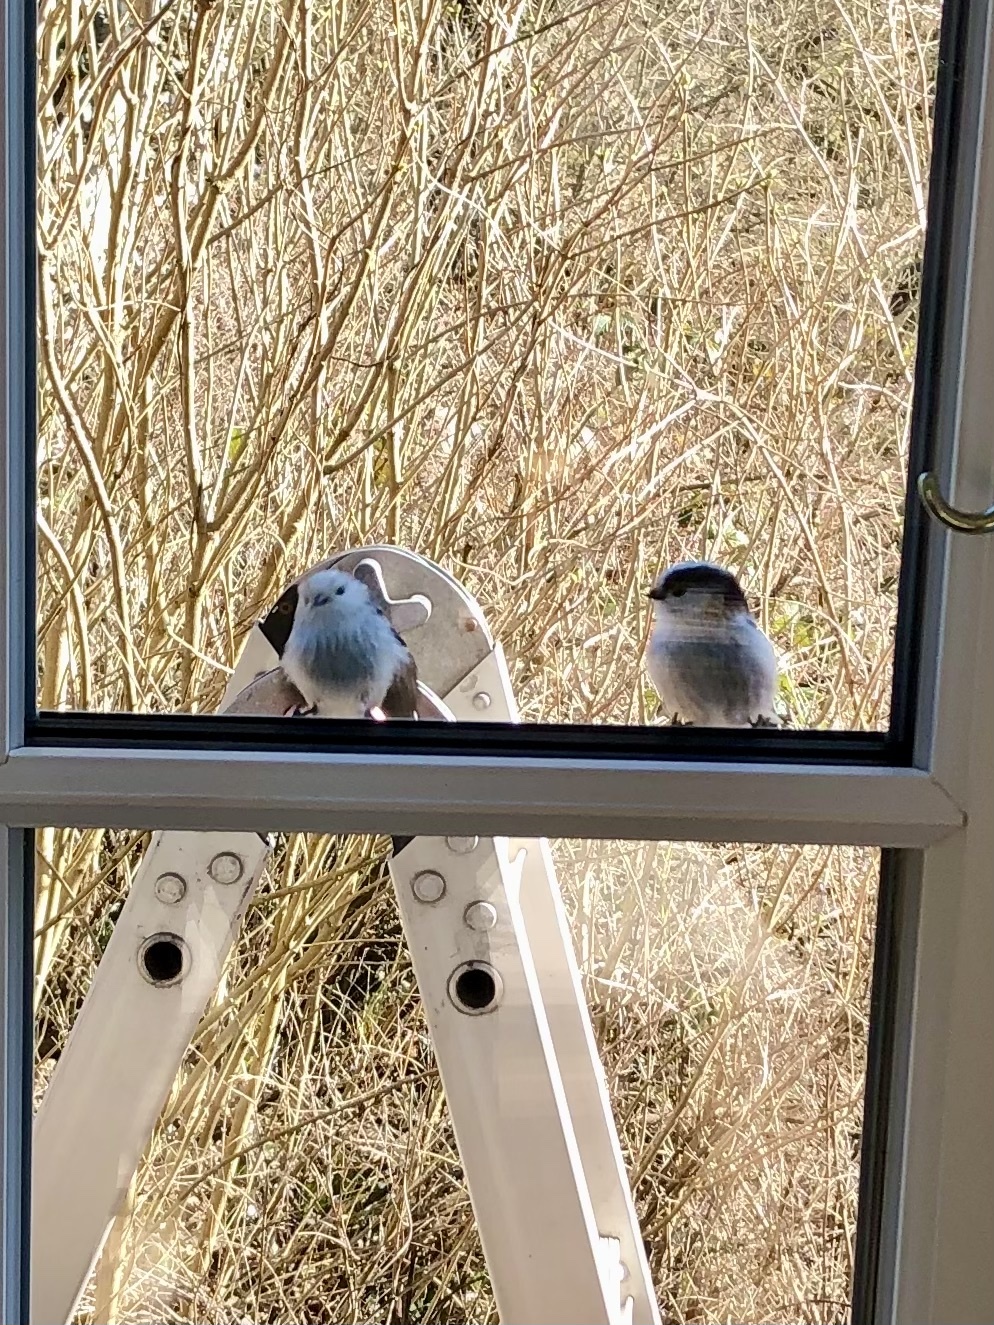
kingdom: Animalia
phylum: Chordata
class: Aves
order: Passeriformes
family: Aegithalidae
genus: Aegithalos
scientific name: Aegithalos caudatus
